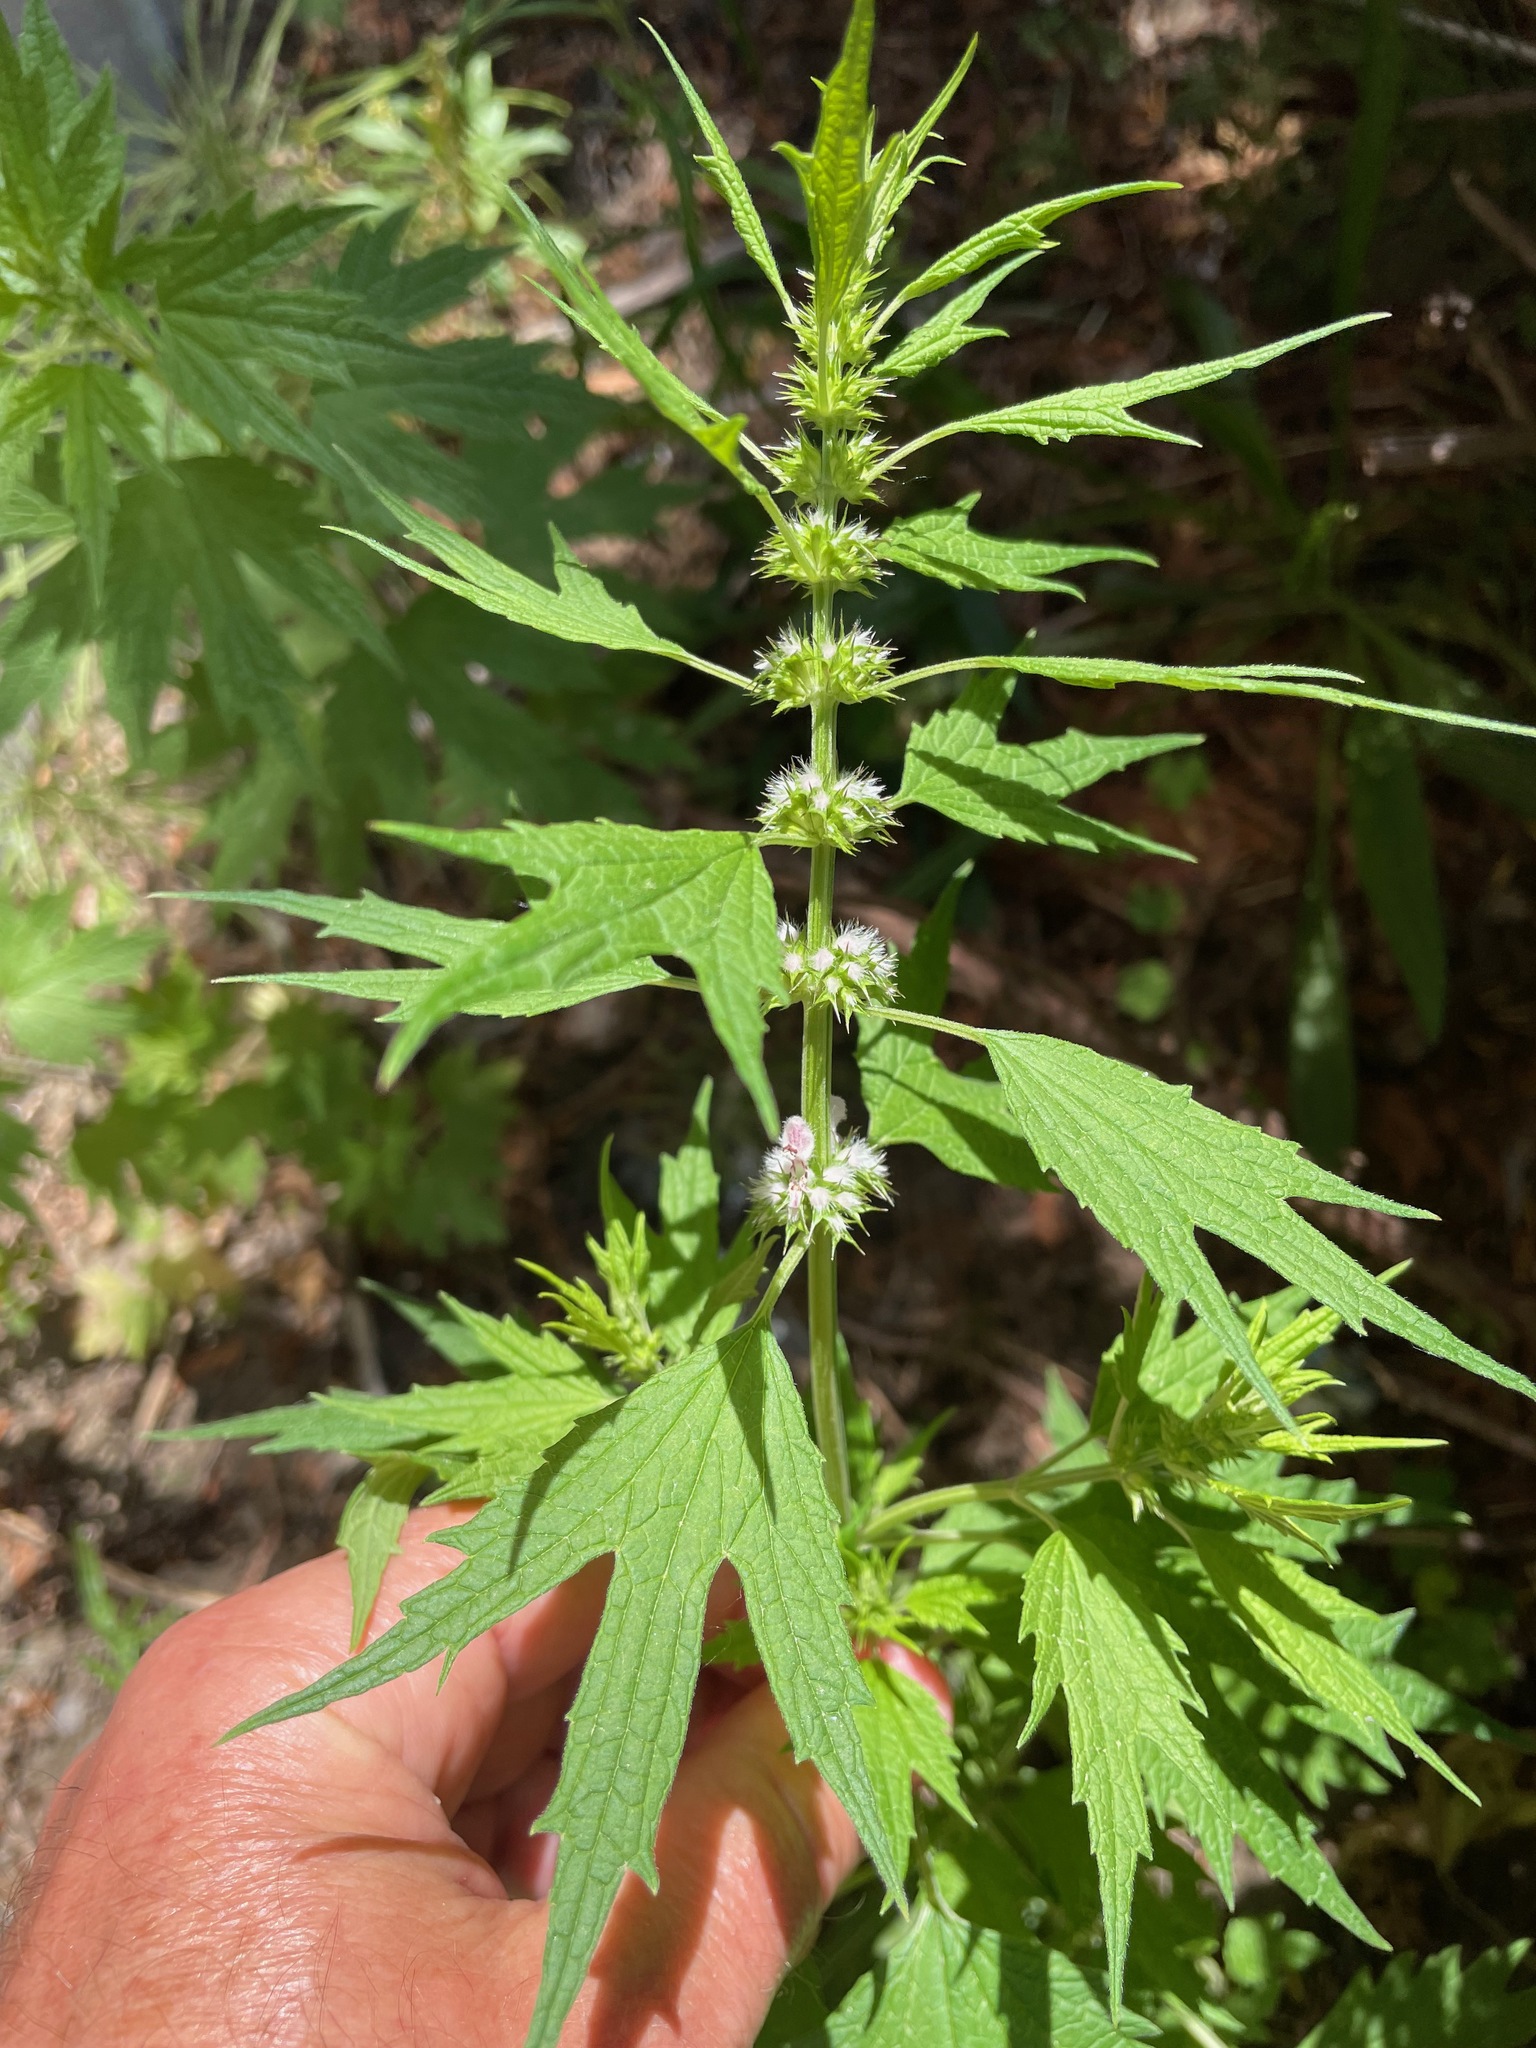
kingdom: Plantae
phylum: Tracheophyta
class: Magnoliopsida
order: Lamiales
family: Lamiaceae
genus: Leonurus
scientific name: Leonurus cardiaca
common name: Motherwort
